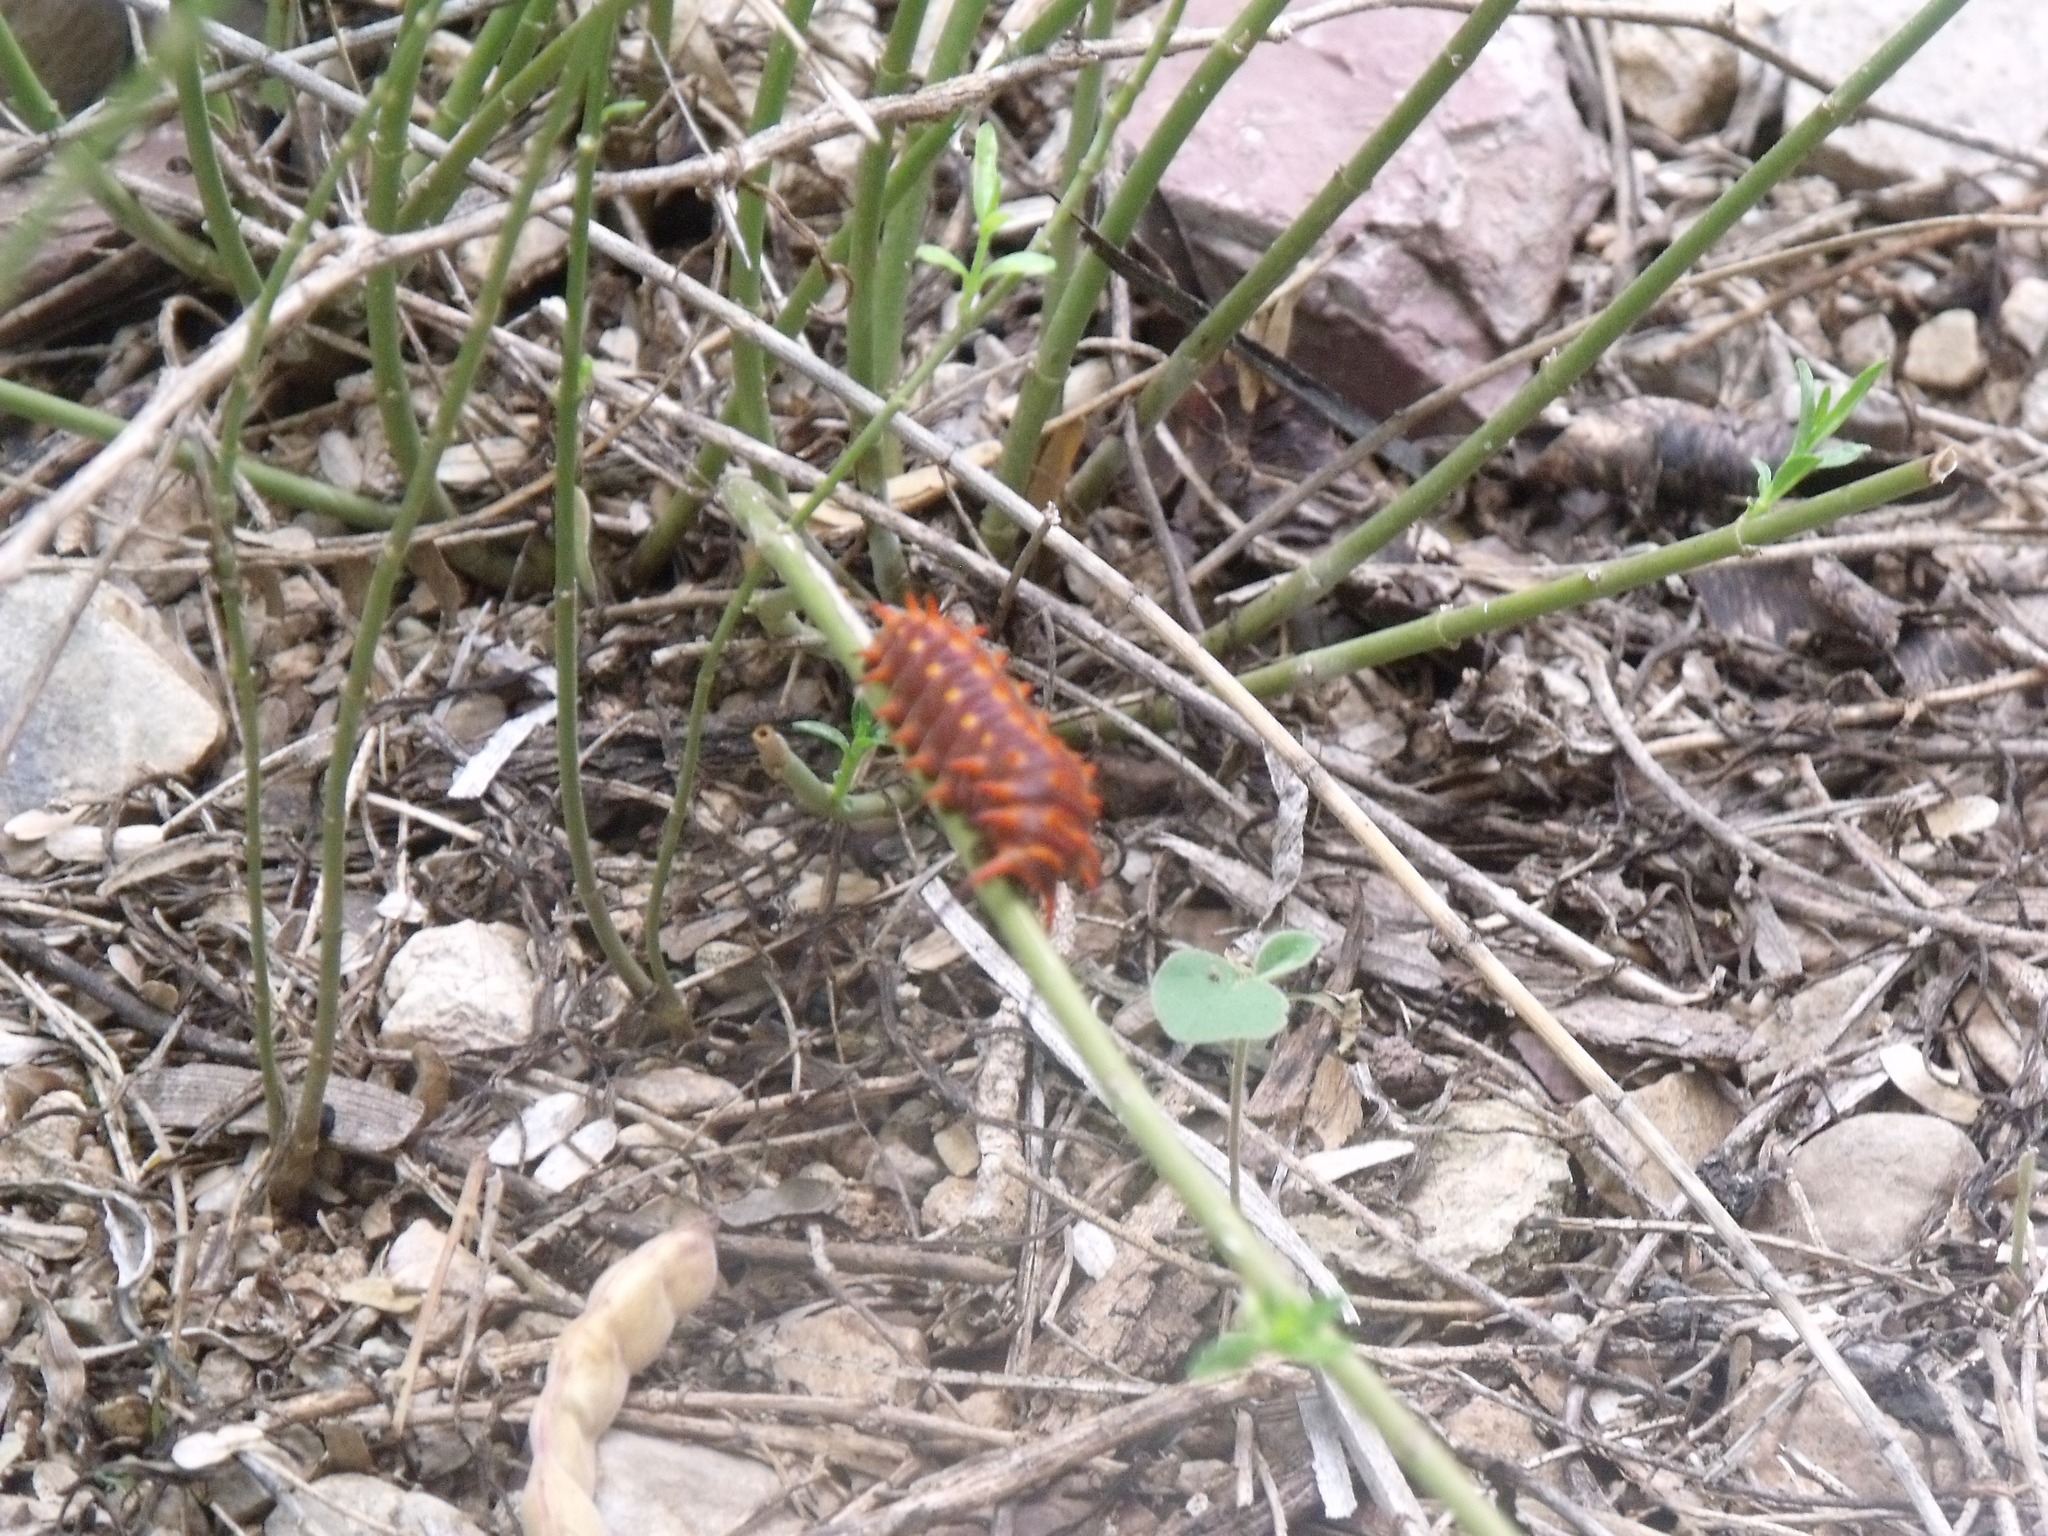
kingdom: Animalia
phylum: Arthropoda
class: Insecta
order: Lepidoptera
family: Papilionidae
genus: Battus
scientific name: Battus philenor
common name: Pipevine swallowtail
